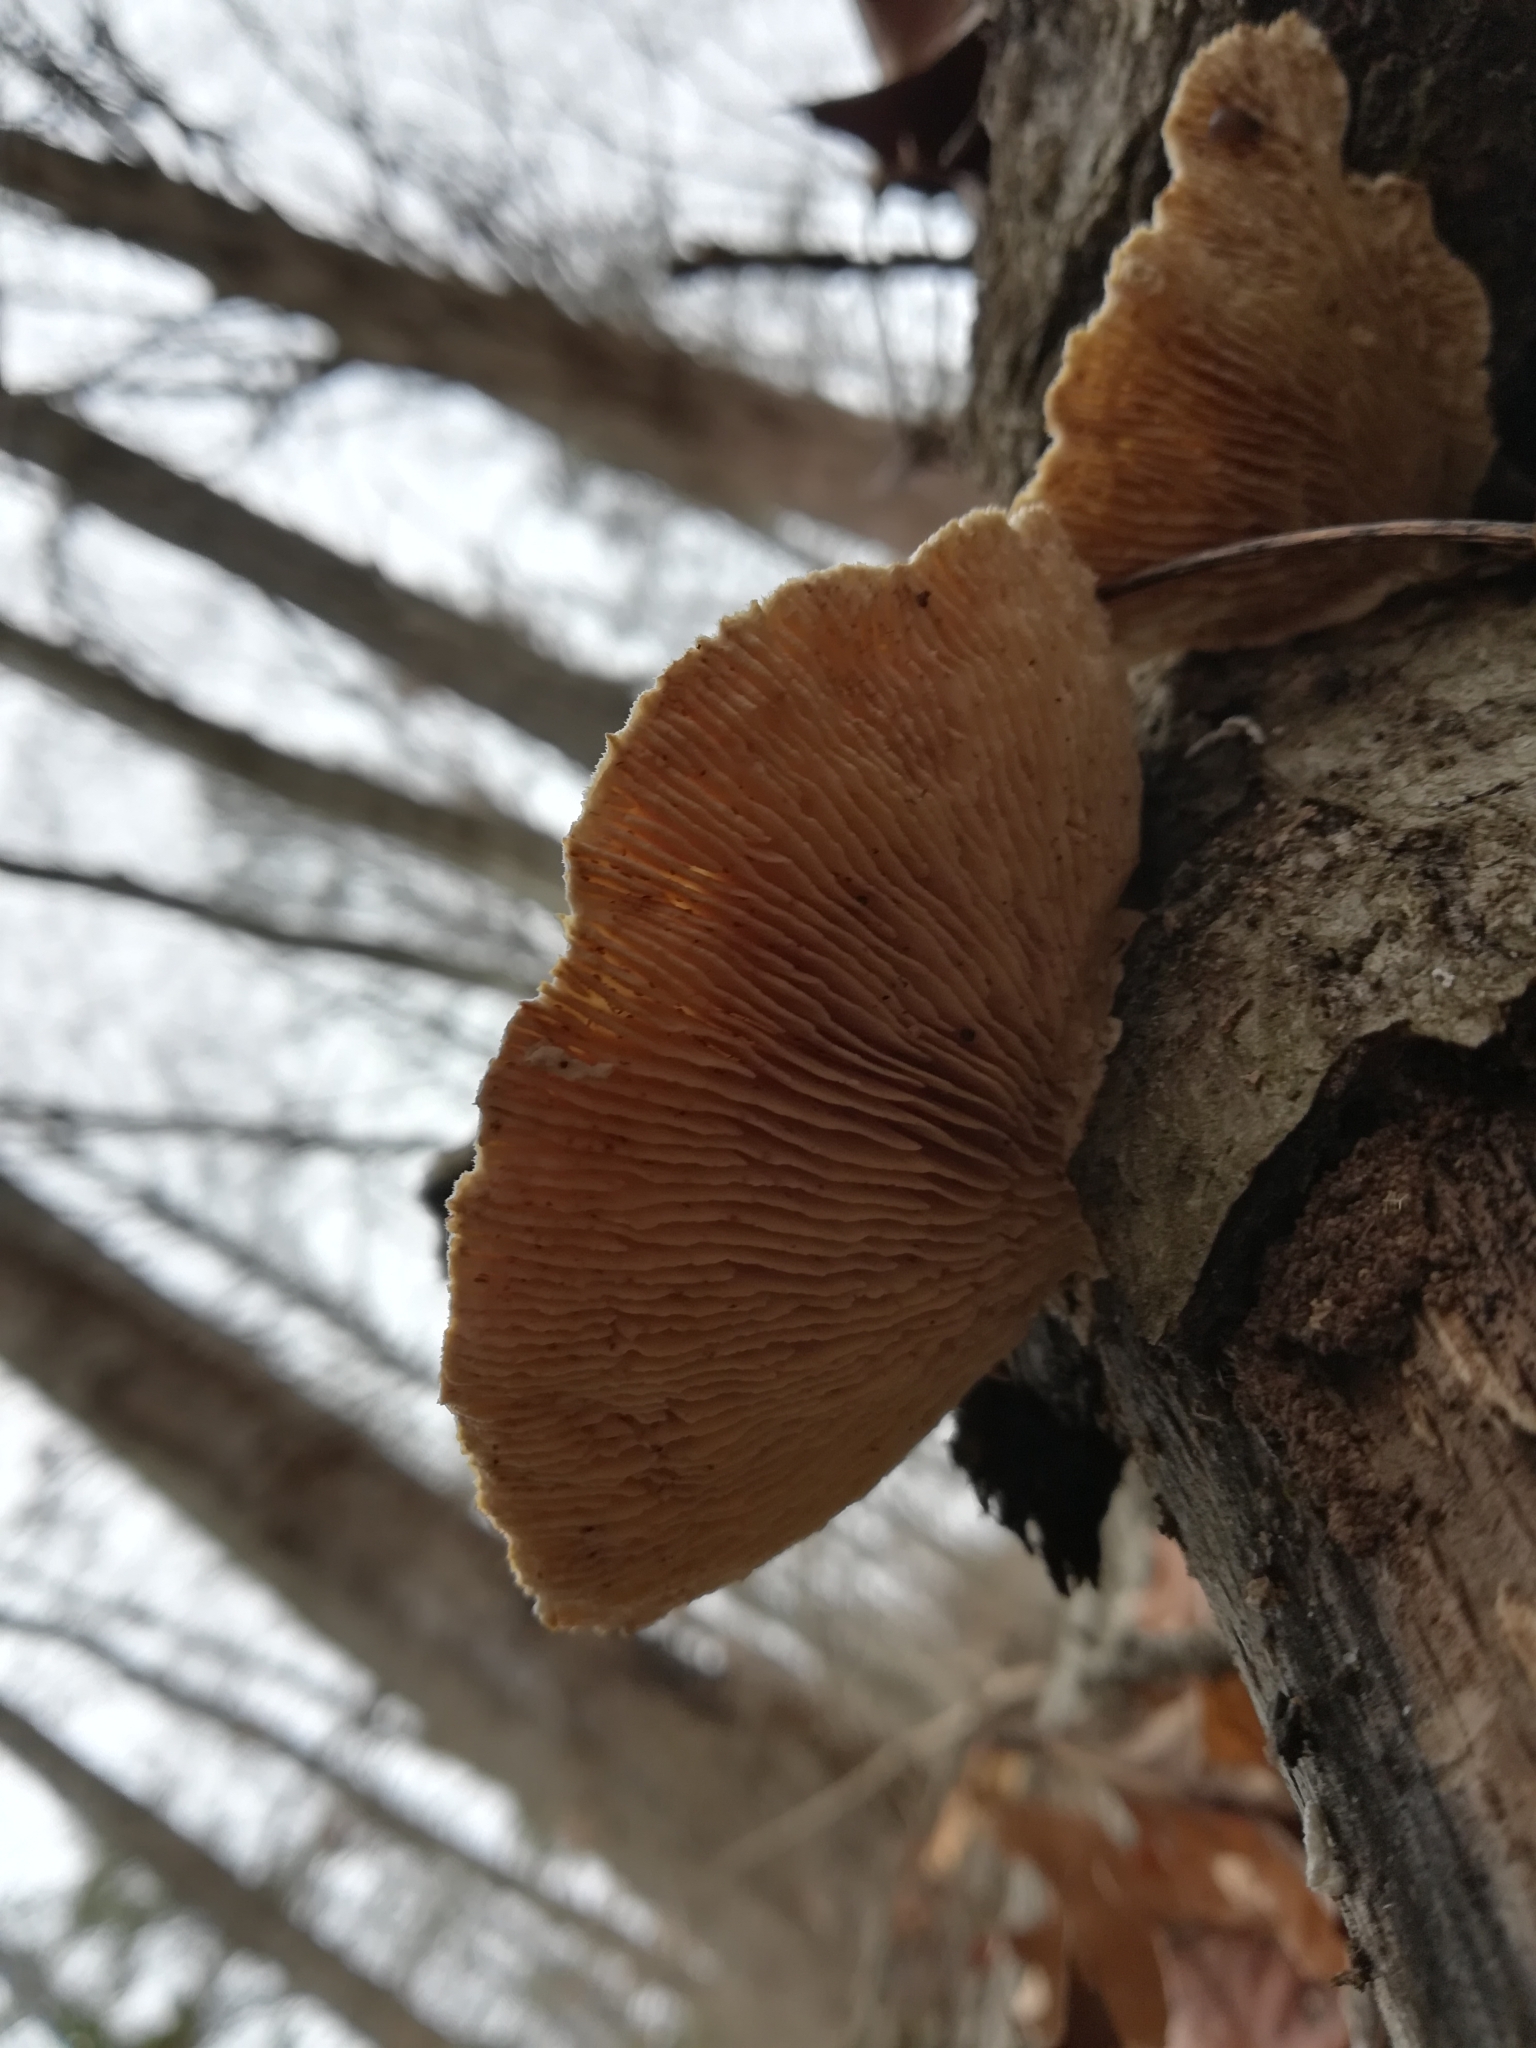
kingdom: Fungi
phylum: Basidiomycota
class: Agaricomycetes
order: Polyporales
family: Polyporaceae
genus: Lenzites
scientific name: Lenzites betulinus
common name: Birch mazegill
